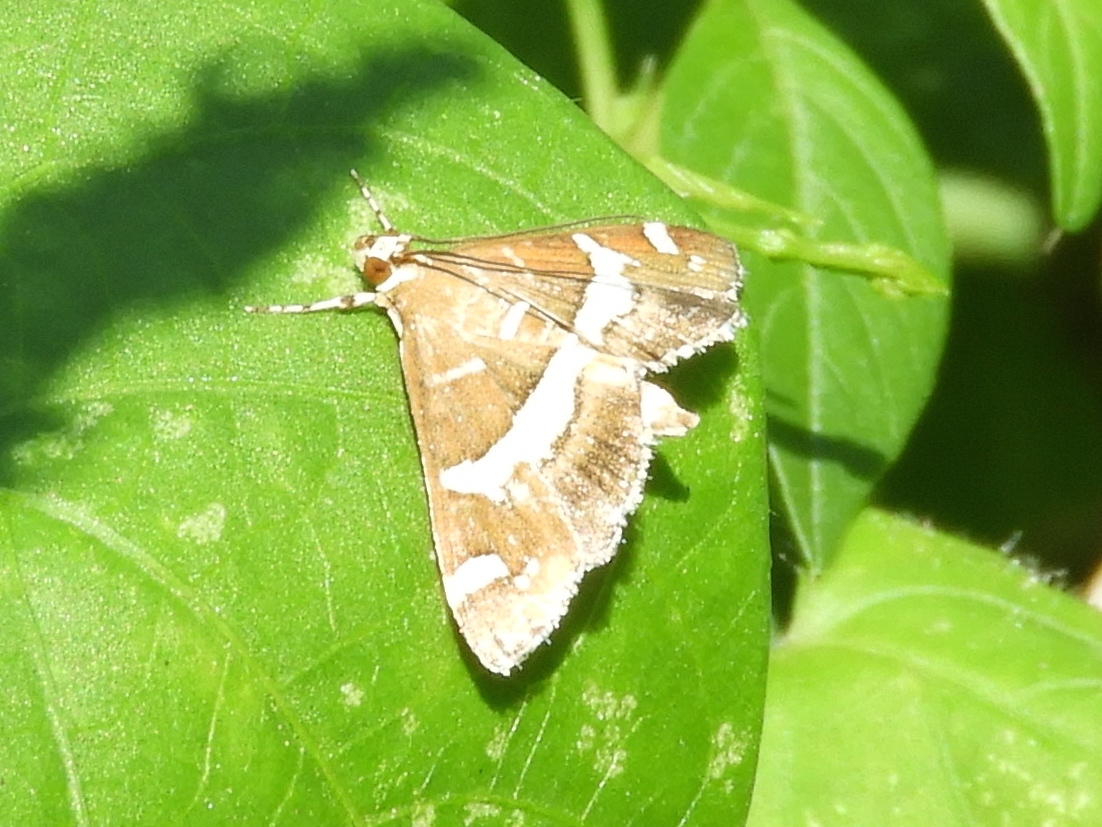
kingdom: Animalia
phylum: Arthropoda
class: Insecta
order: Lepidoptera
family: Crambidae
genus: Spoladea
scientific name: Spoladea recurvalis
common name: Beet webworm moth
